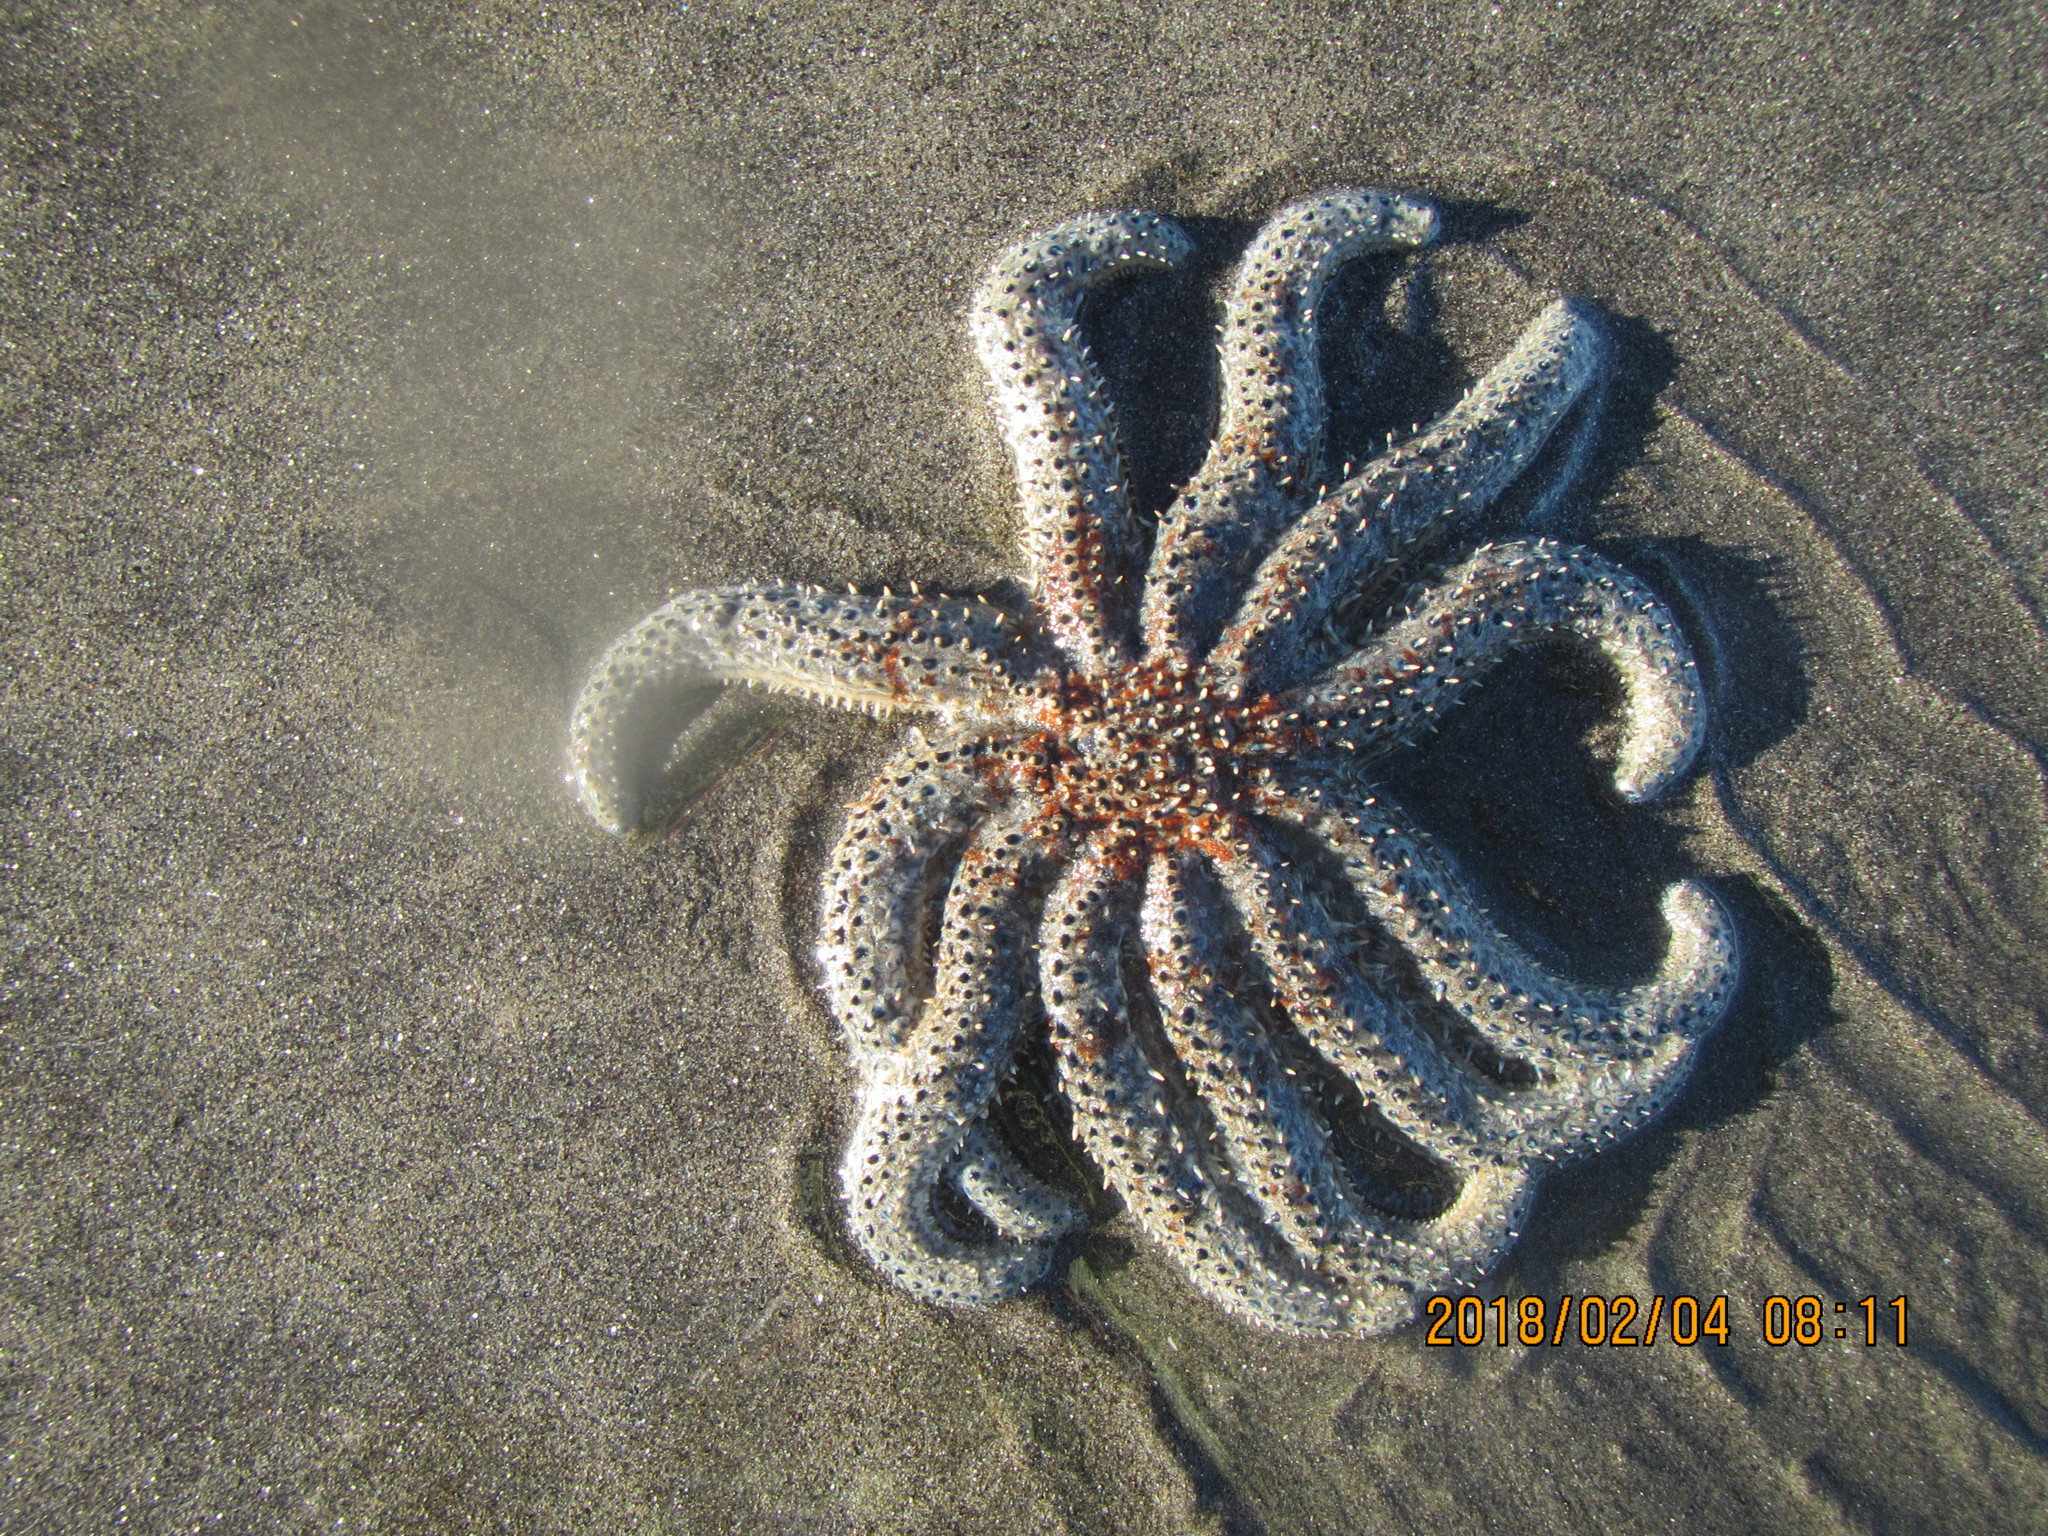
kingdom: Animalia
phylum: Echinodermata
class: Asteroidea
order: Forcipulatida
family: Asteriidae
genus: Coscinasterias
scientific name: Coscinasterias muricata
